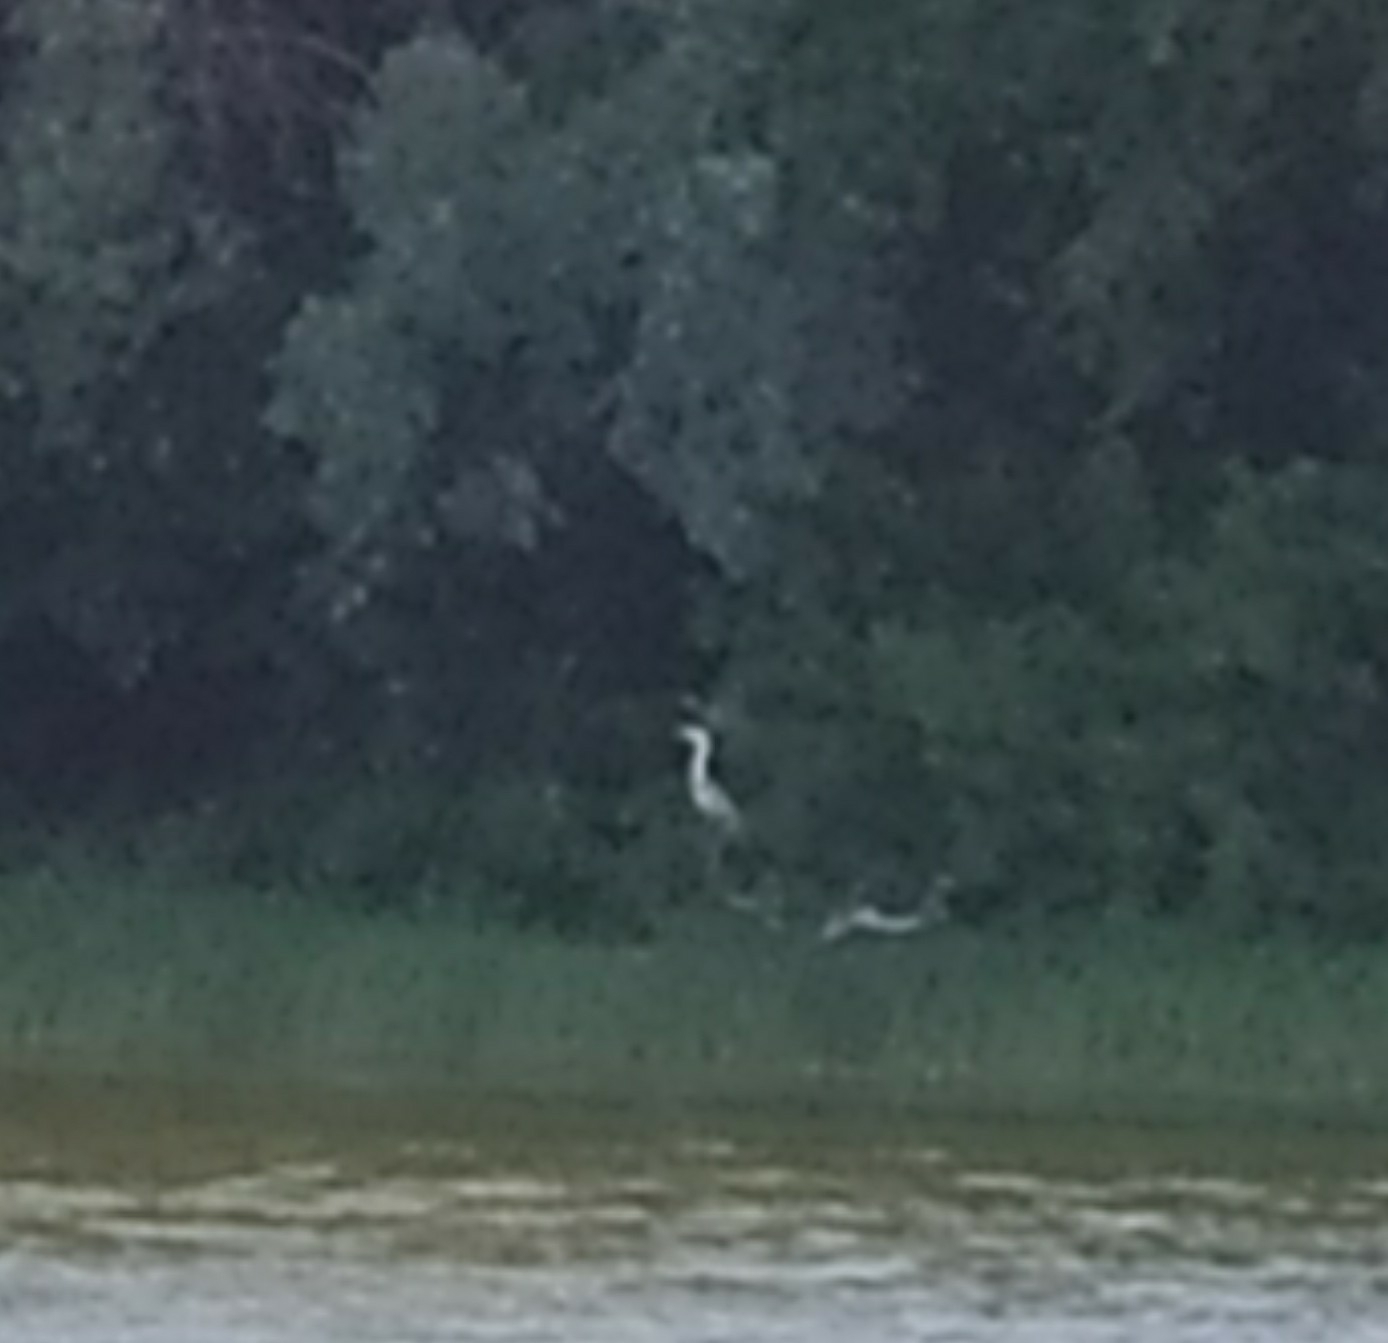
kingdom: Animalia
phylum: Chordata
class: Aves
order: Pelecaniformes
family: Ardeidae
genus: Ardea
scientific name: Ardea cinerea
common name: Grey heron
